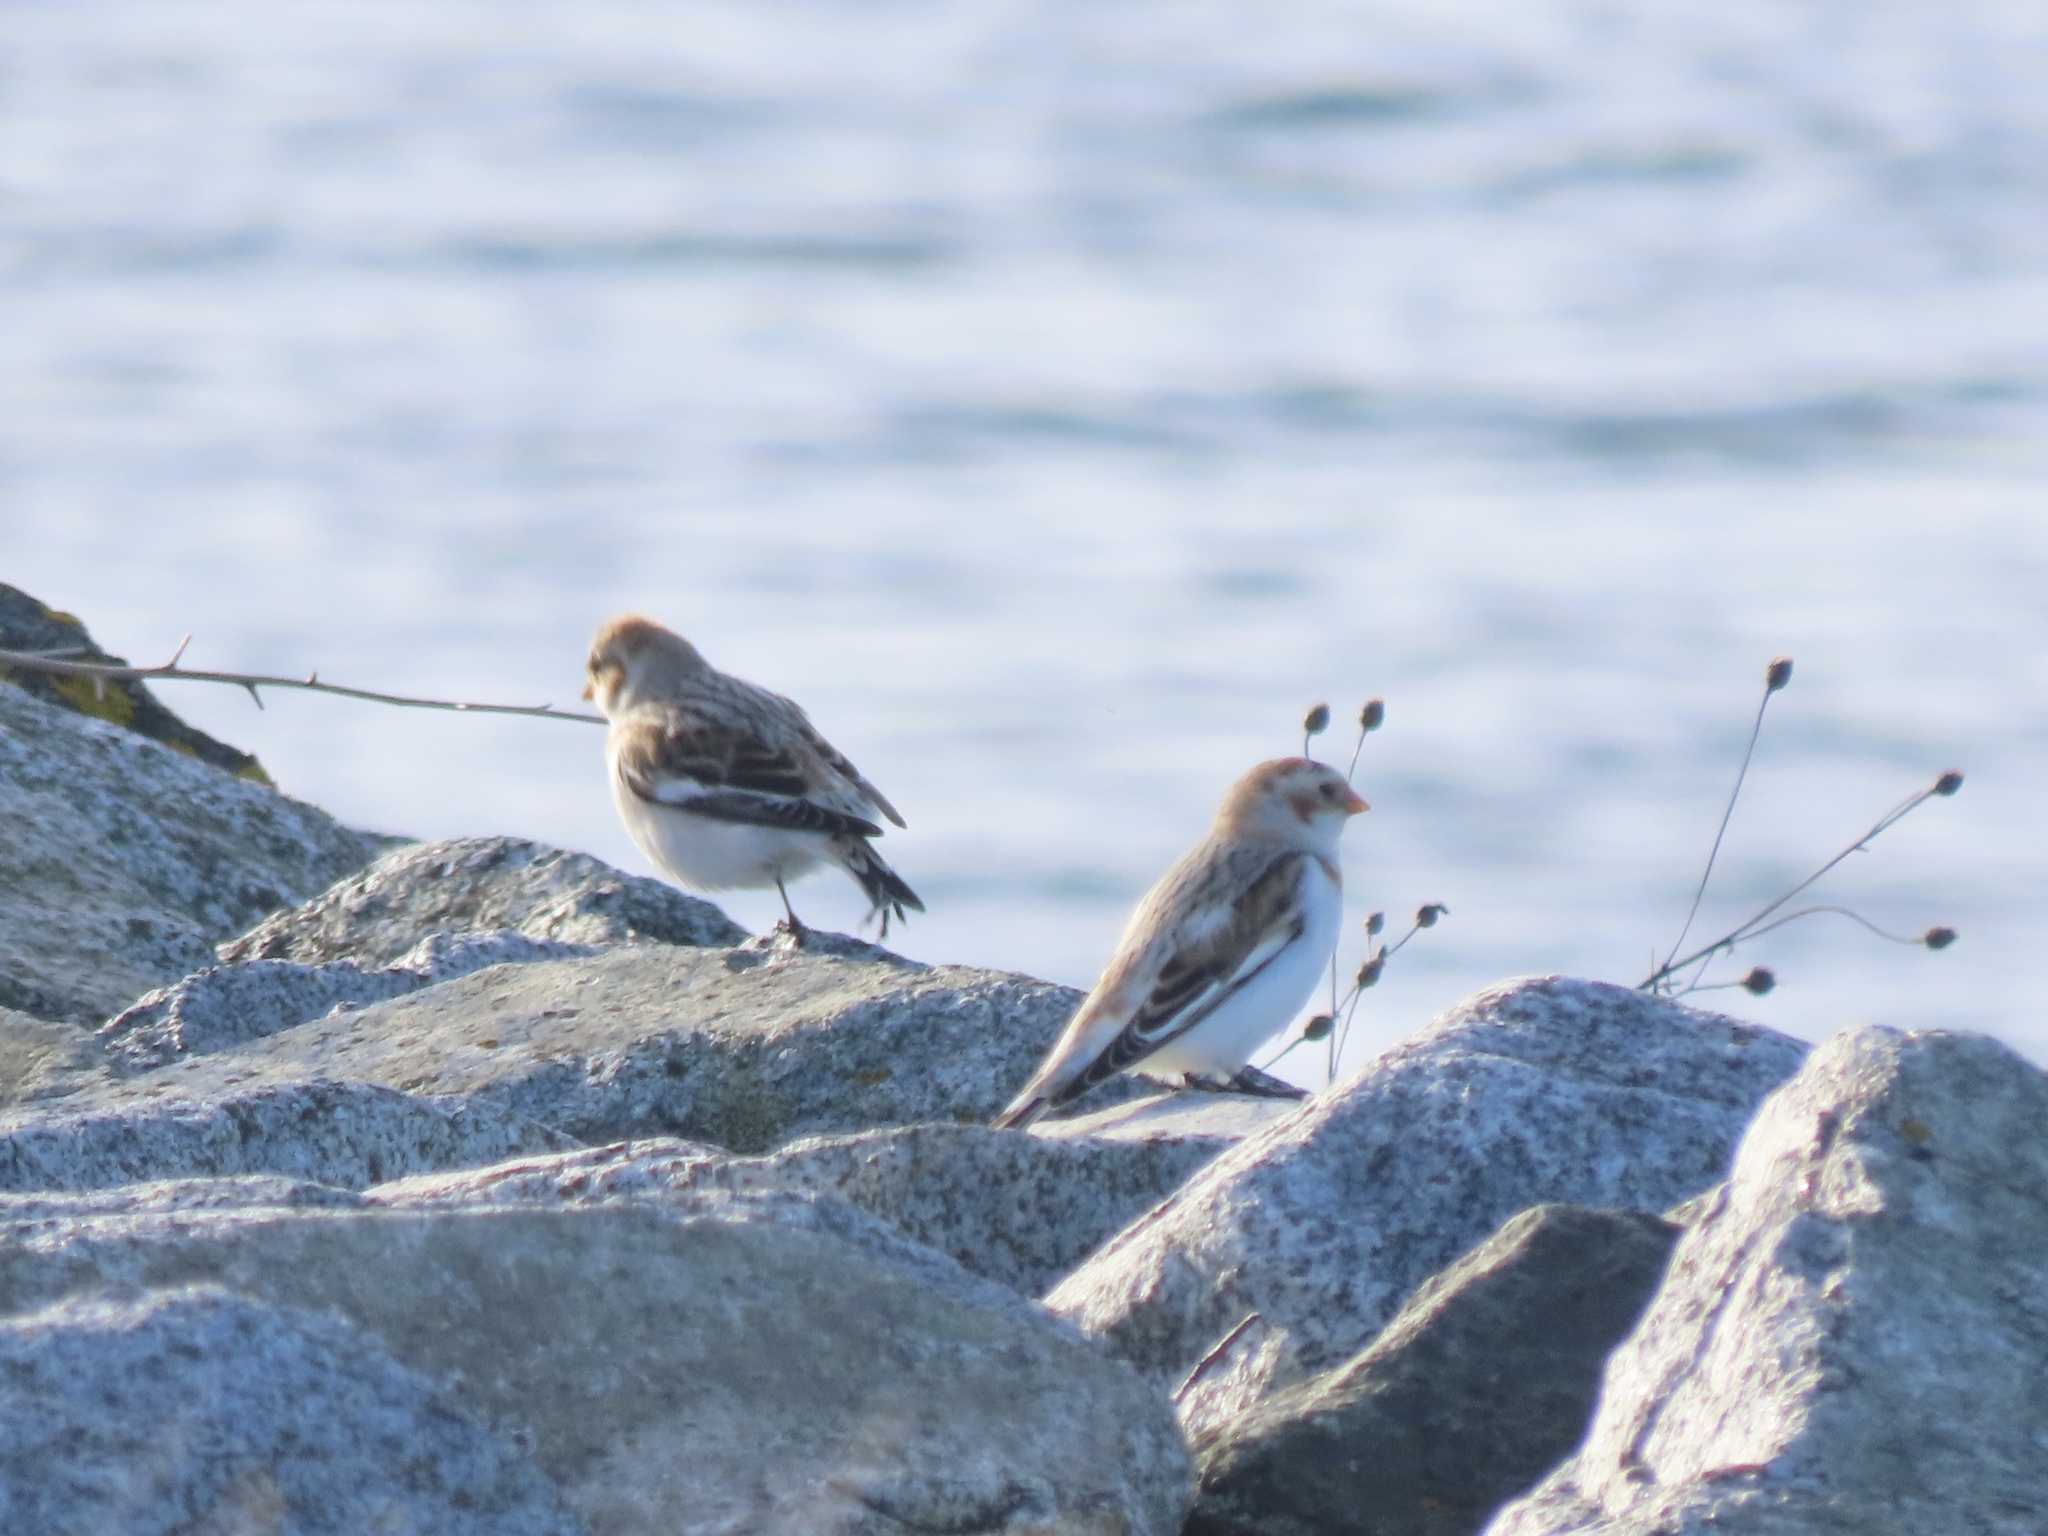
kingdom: Animalia
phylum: Chordata
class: Aves
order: Passeriformes
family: Calcariidae
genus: Plectrophenax
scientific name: Plectrophenax nivalis
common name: Snow bunting
